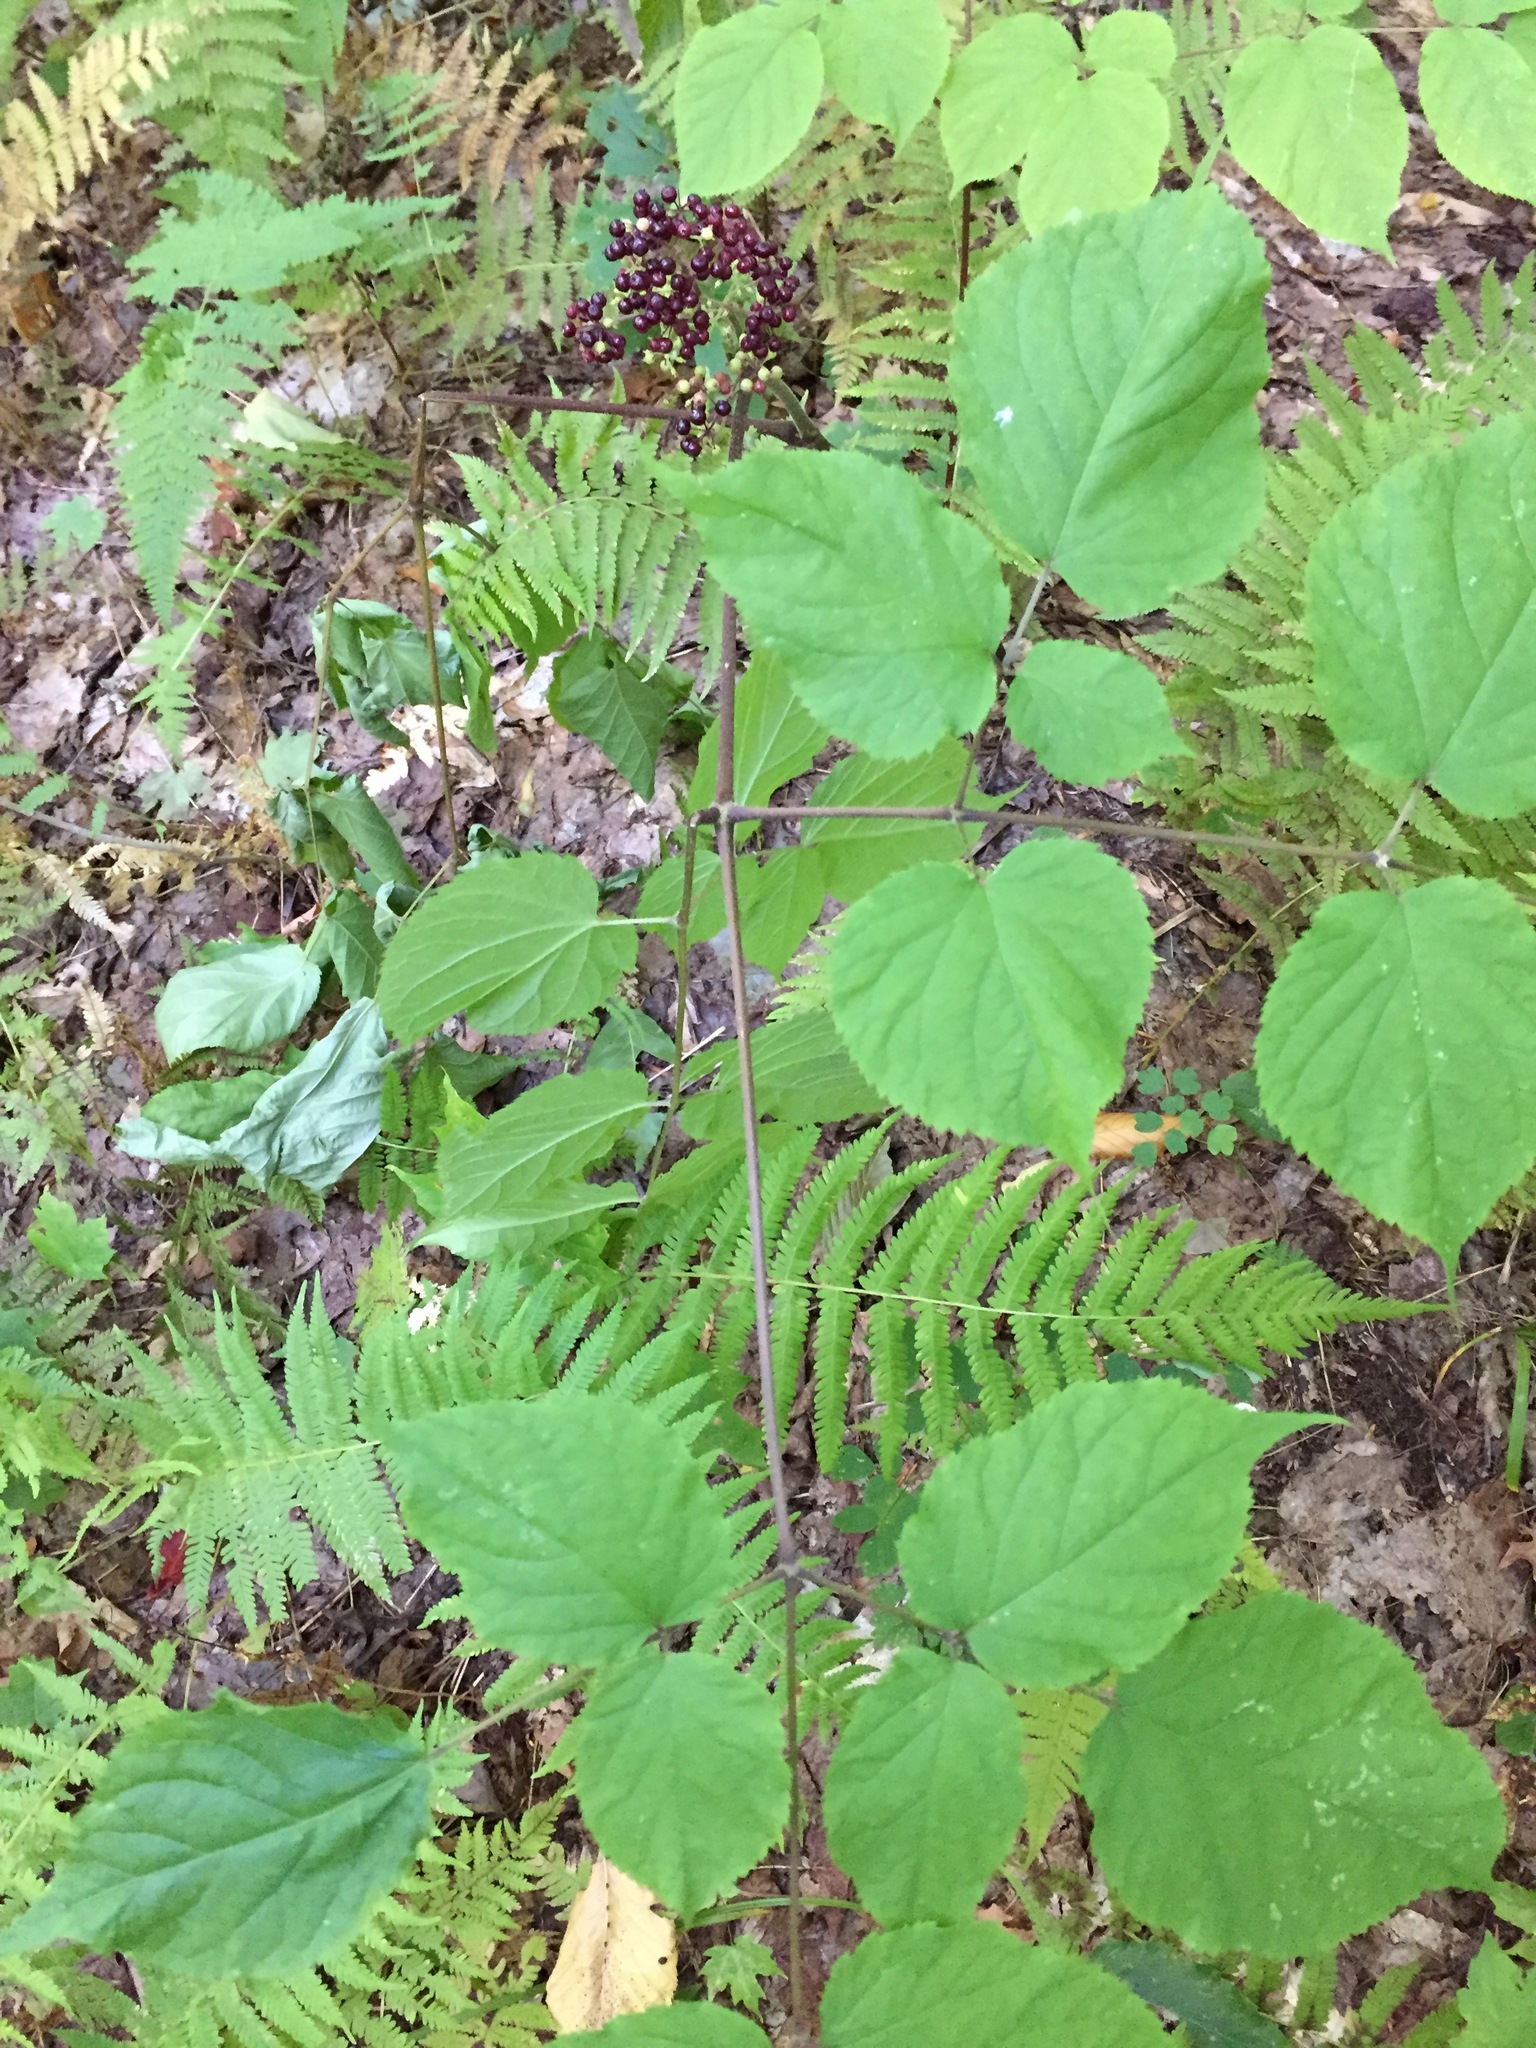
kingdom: Plantae
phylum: Tracheophyta
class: Magnoliopsida
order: Apiales
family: Araliaceae
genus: Aralia
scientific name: Aralia racemosa
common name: American-spikenard
